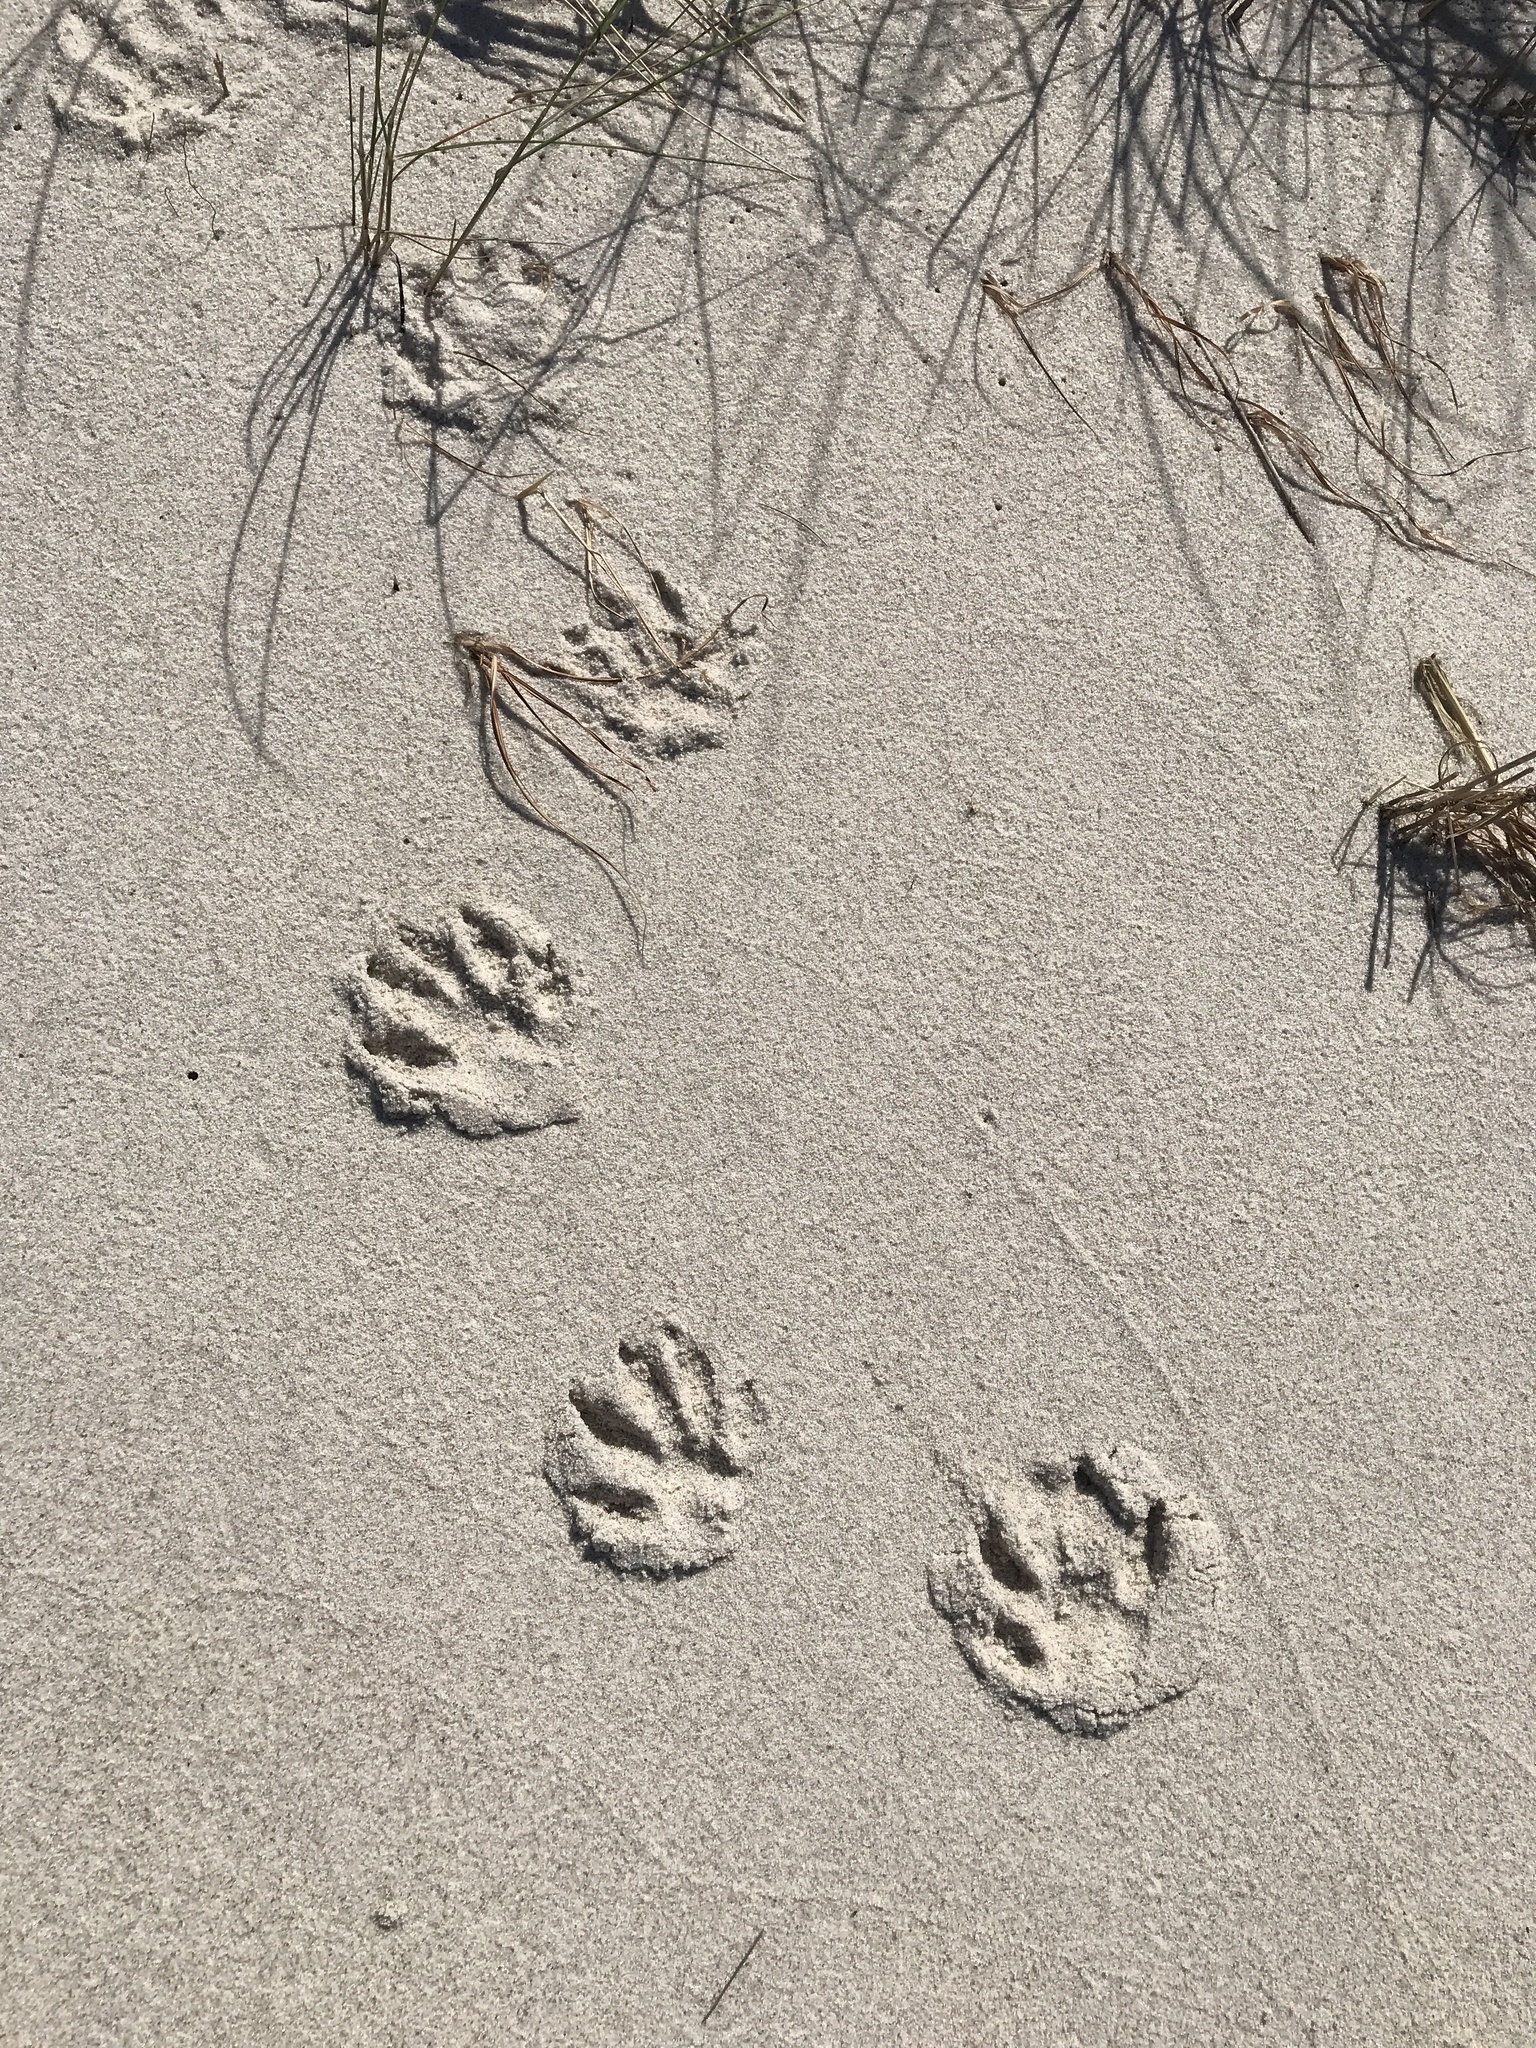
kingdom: Animalia
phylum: Chordata
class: Mammalia
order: Carnivora
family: Procyonidae
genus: Procyon
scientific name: Procyon lotor
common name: Raccoon
